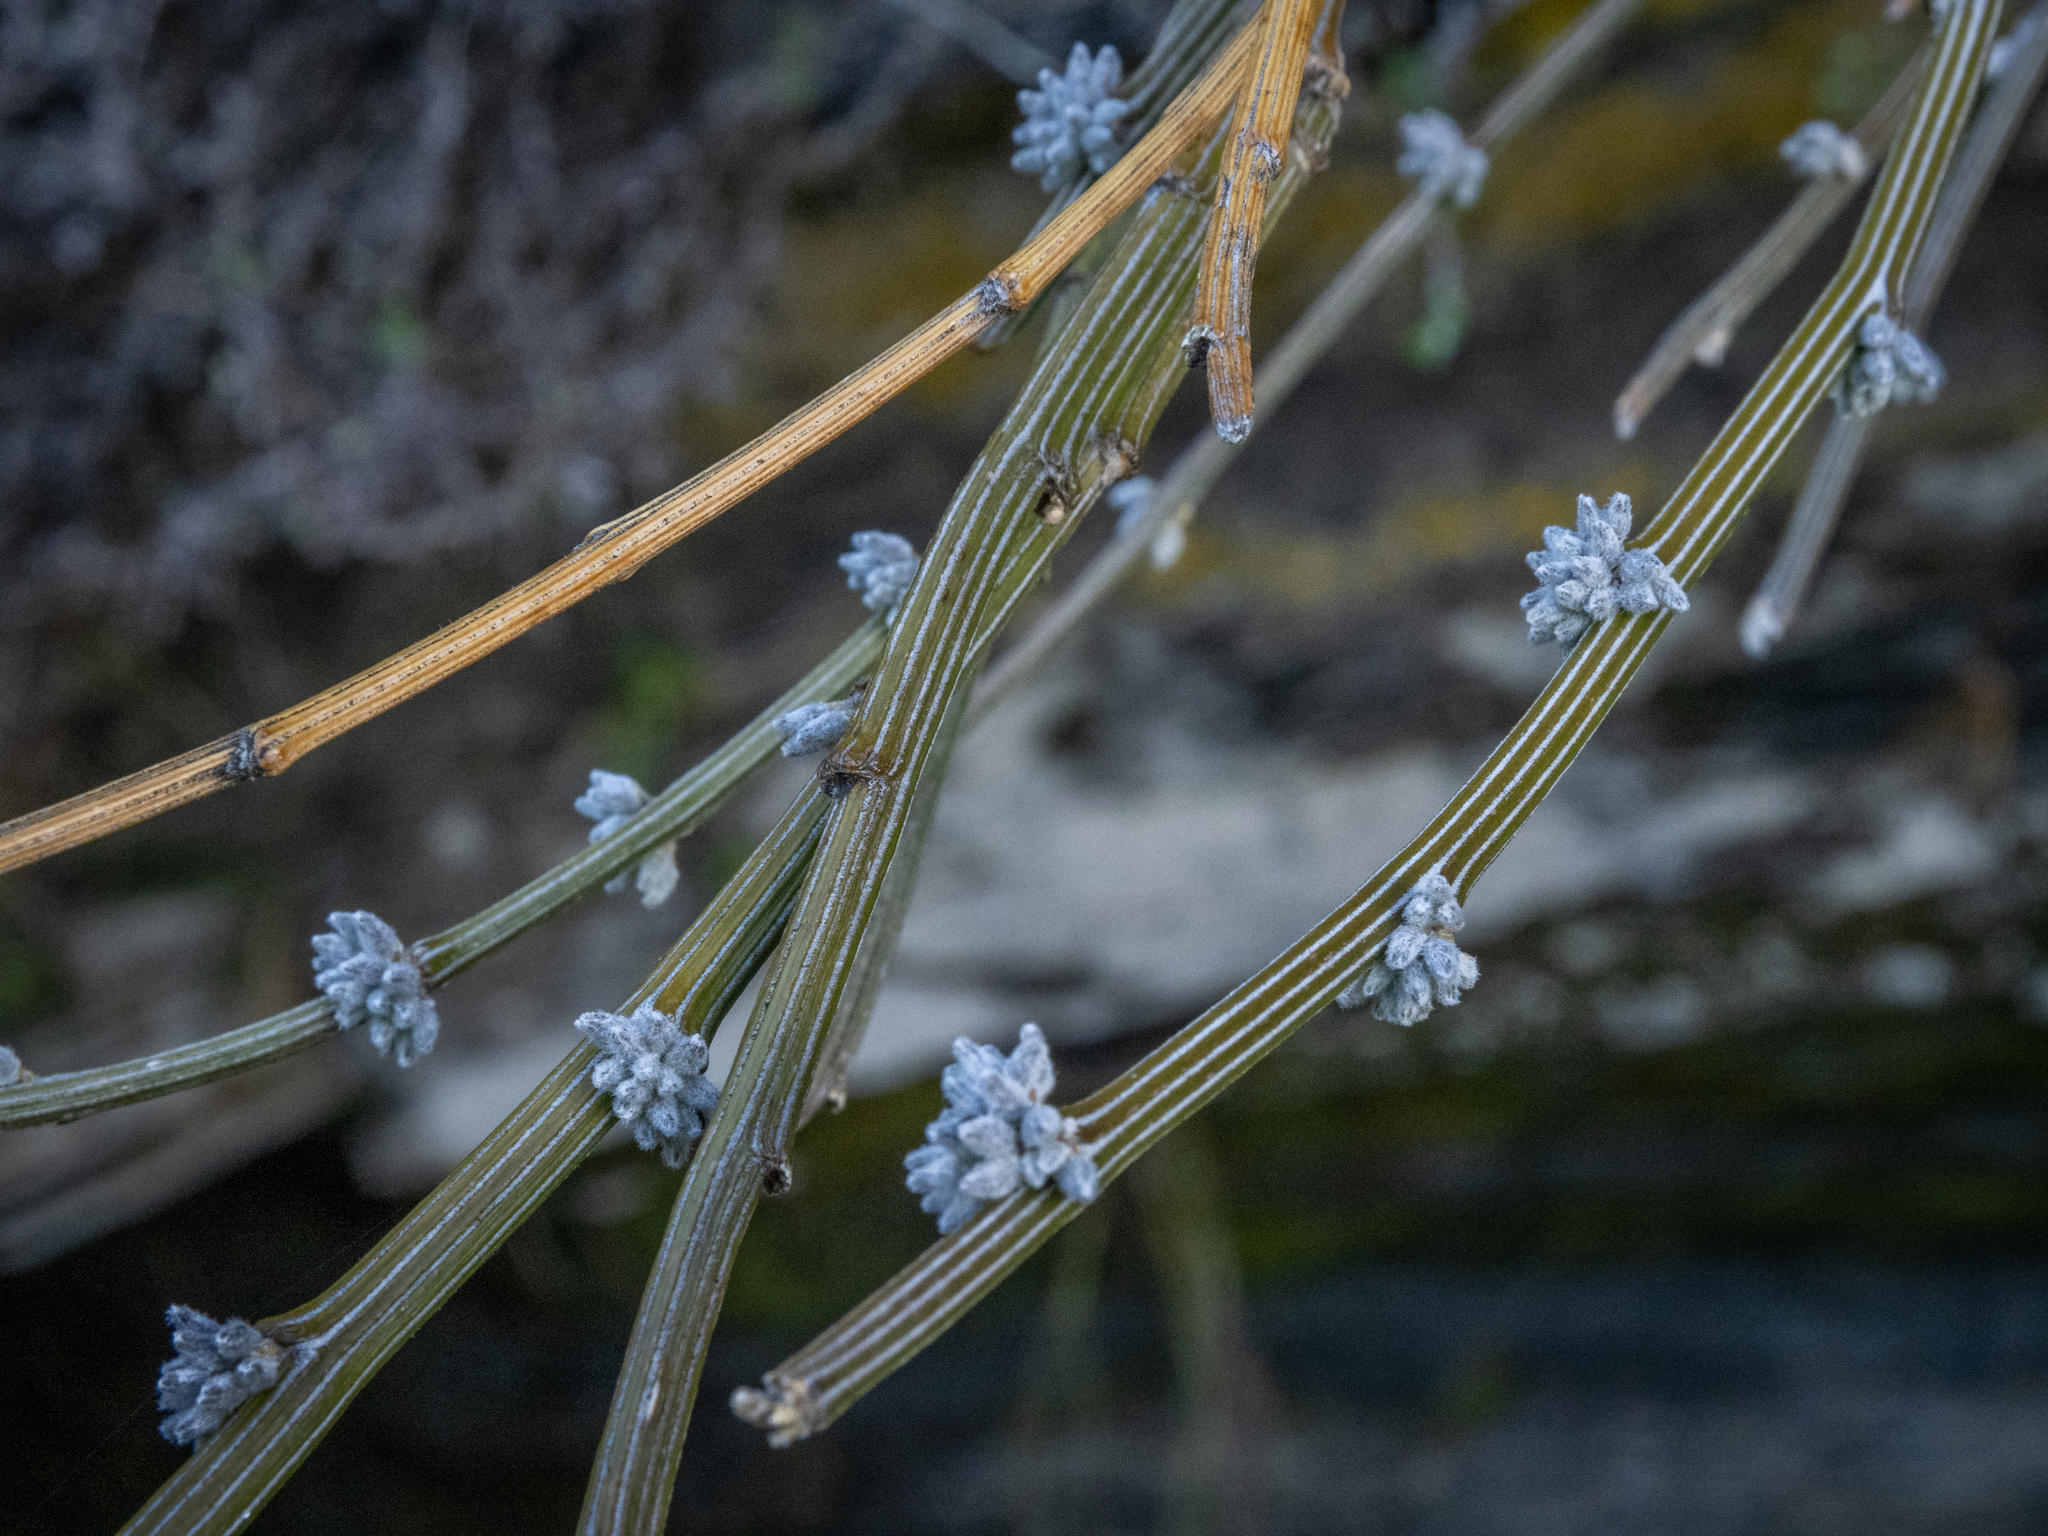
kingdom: Plantae
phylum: Tracheophyta
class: Magnoliopsida
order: Fabales
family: Fabaceae
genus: Carmichaelia
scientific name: Carmichaelia crassicaulis
